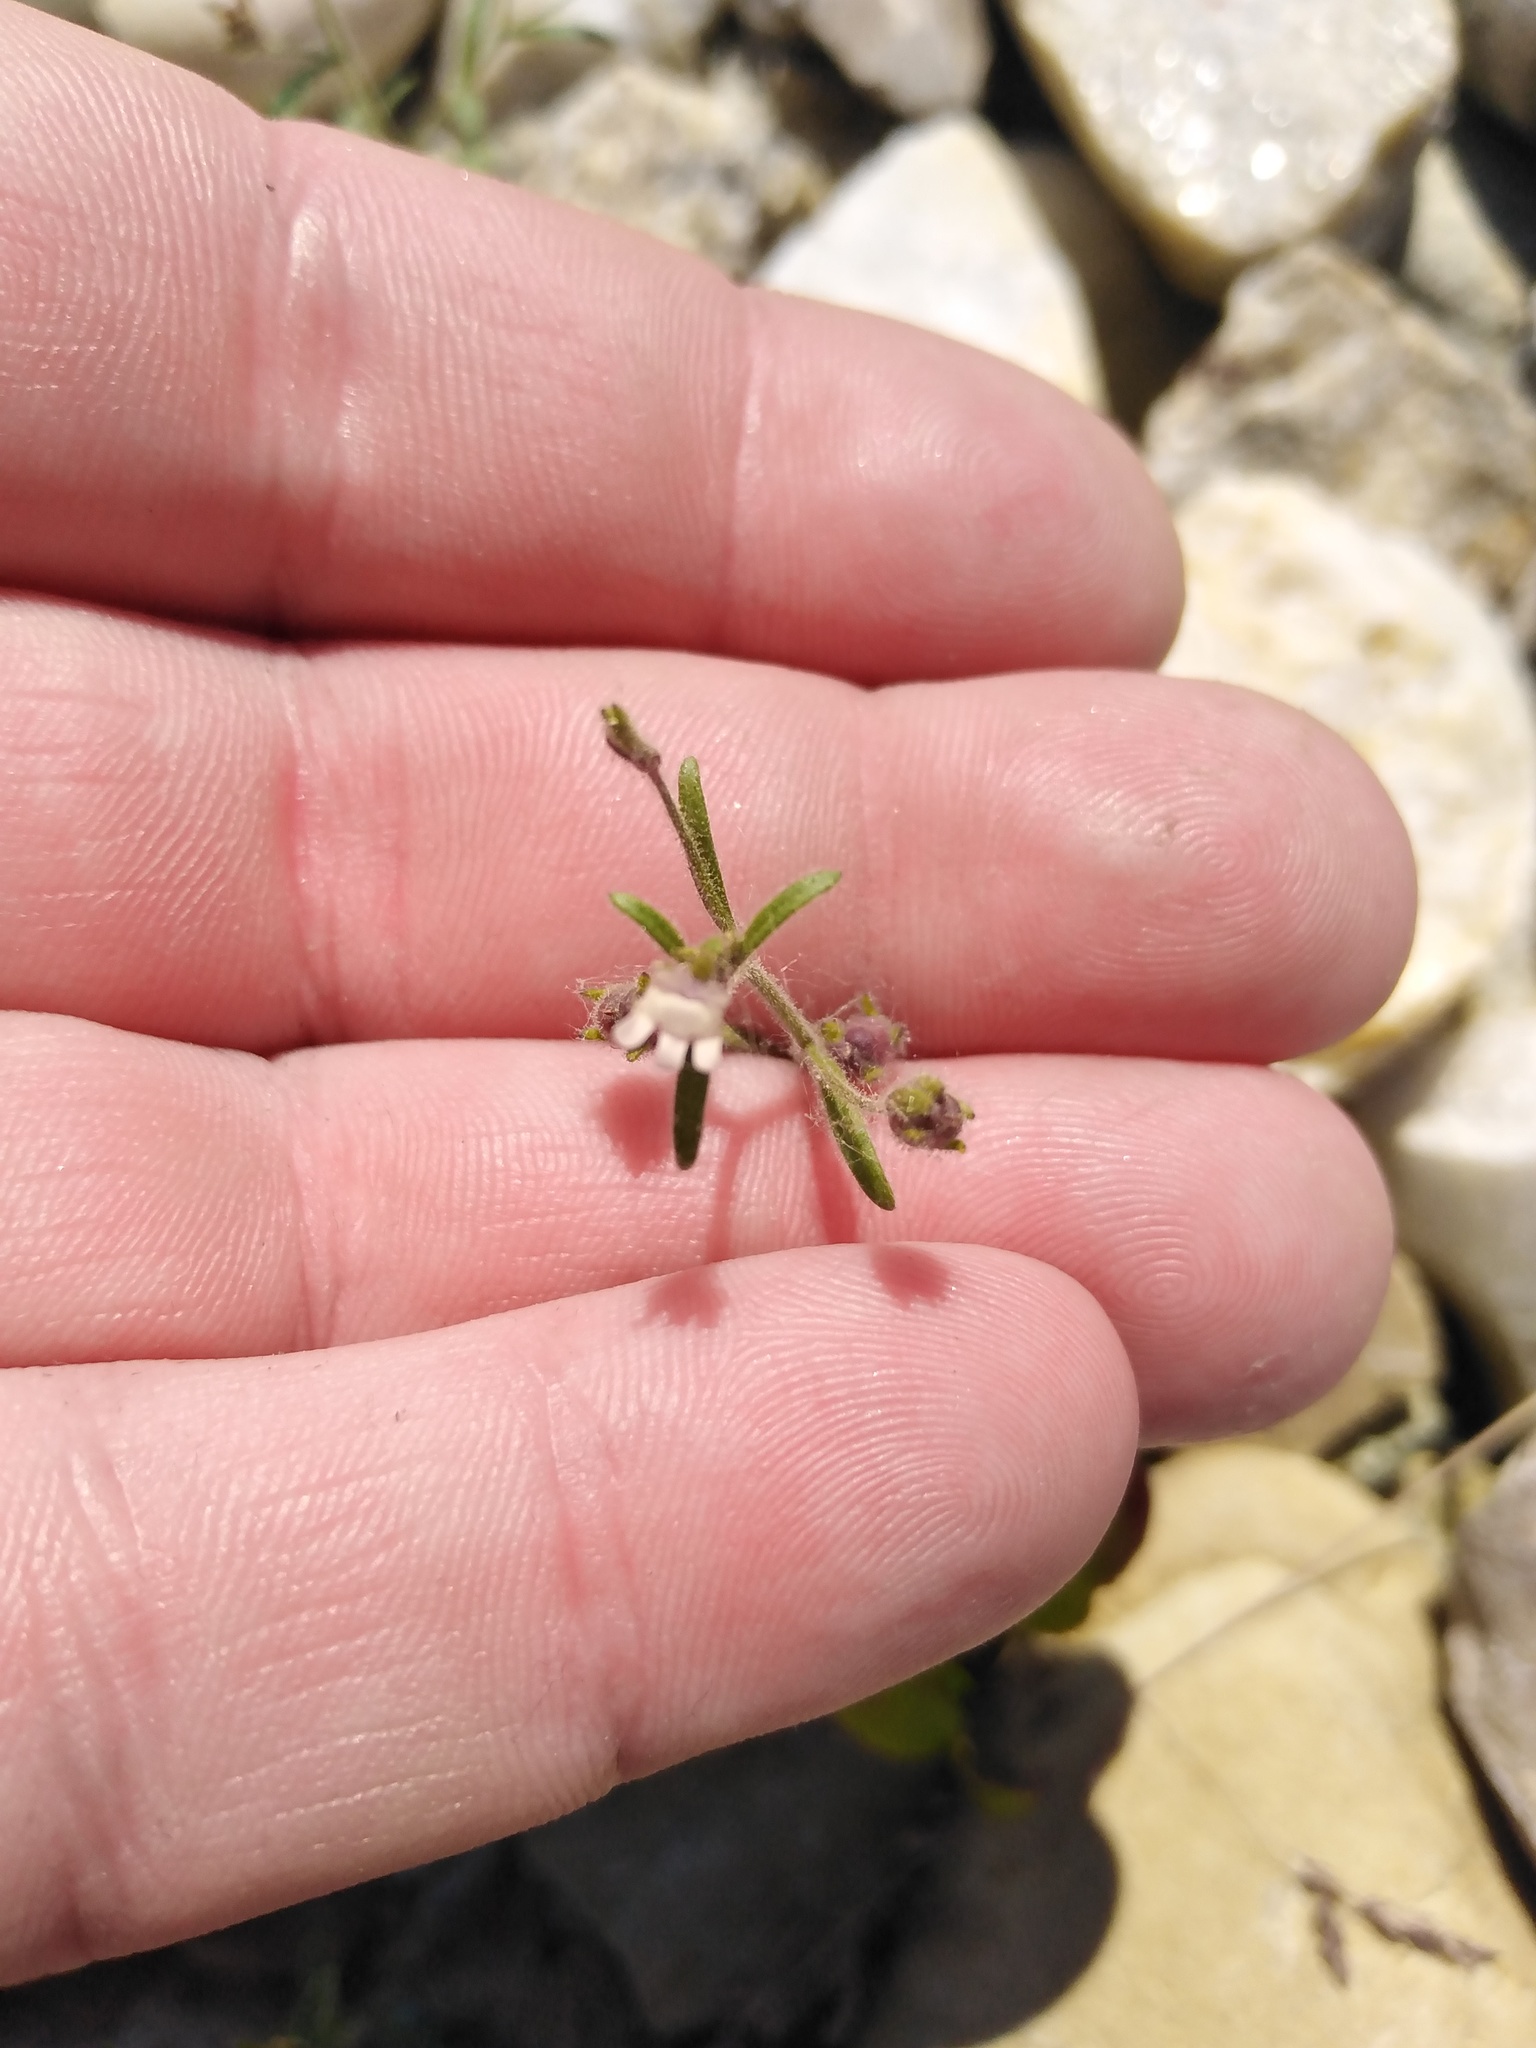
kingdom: Plantae
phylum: Tracheophyta
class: Magnoliopsida
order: Lamiales
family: Plantaginaceae
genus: Chaenorhinum
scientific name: Chaenorhinum minus
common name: Dwarf snapdragon
